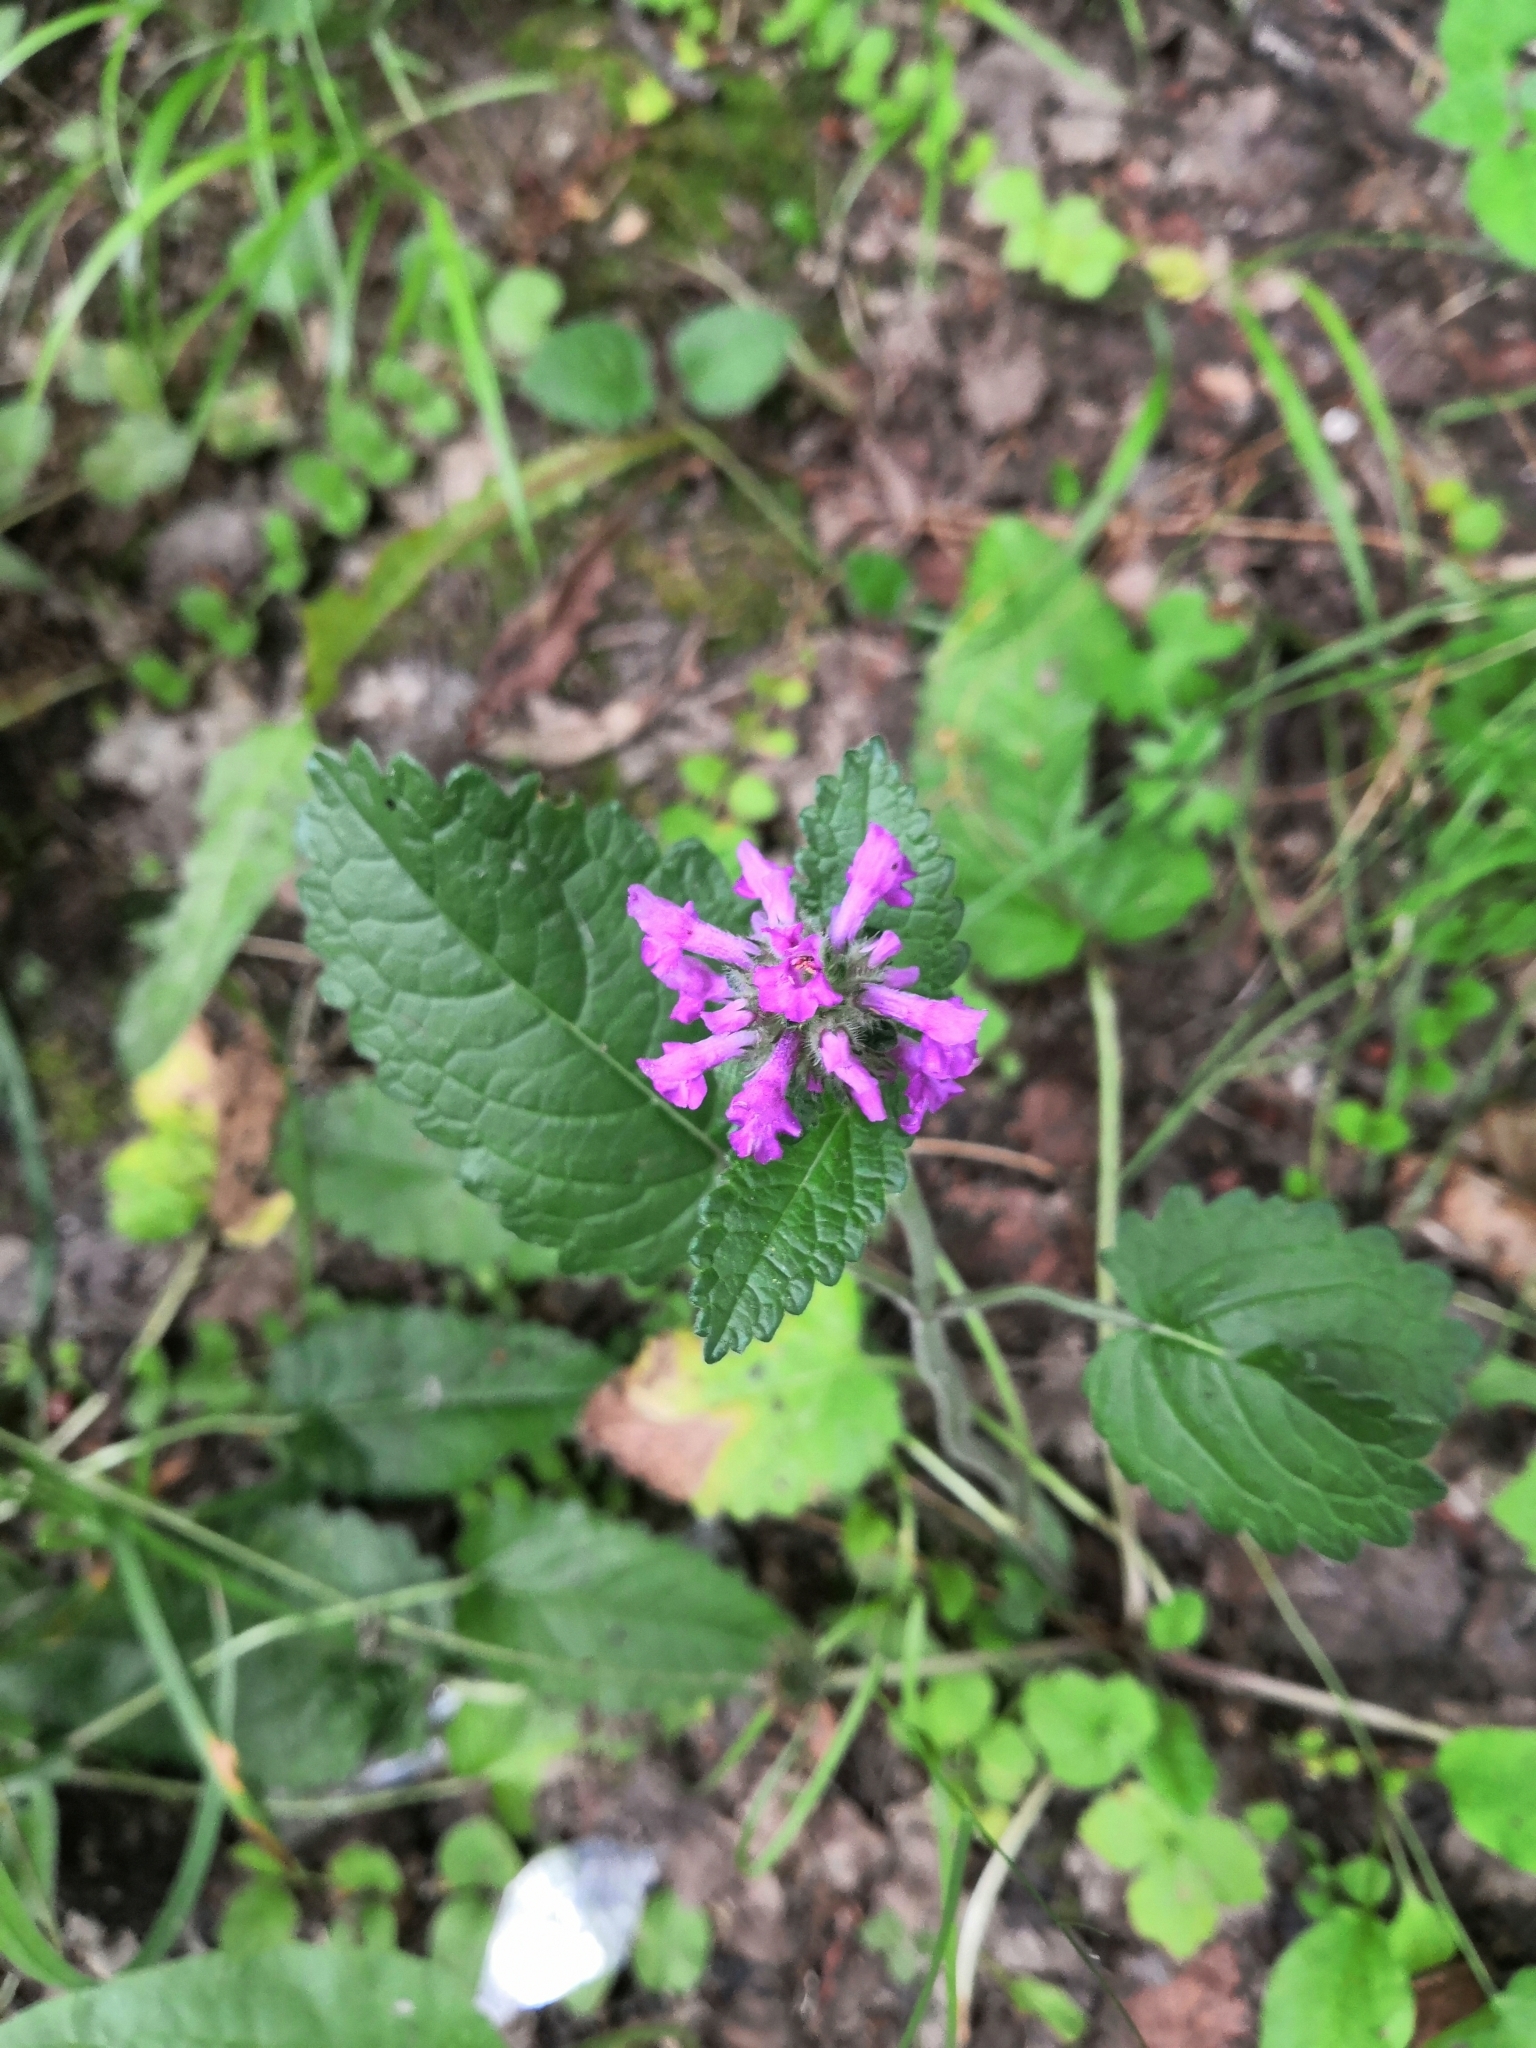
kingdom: Plantae
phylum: Tracheophyta
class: Magnoliopsida
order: Lamiales
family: Lamiaceae
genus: Betonica
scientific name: Betonica officinalis
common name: Bishop's-wort
